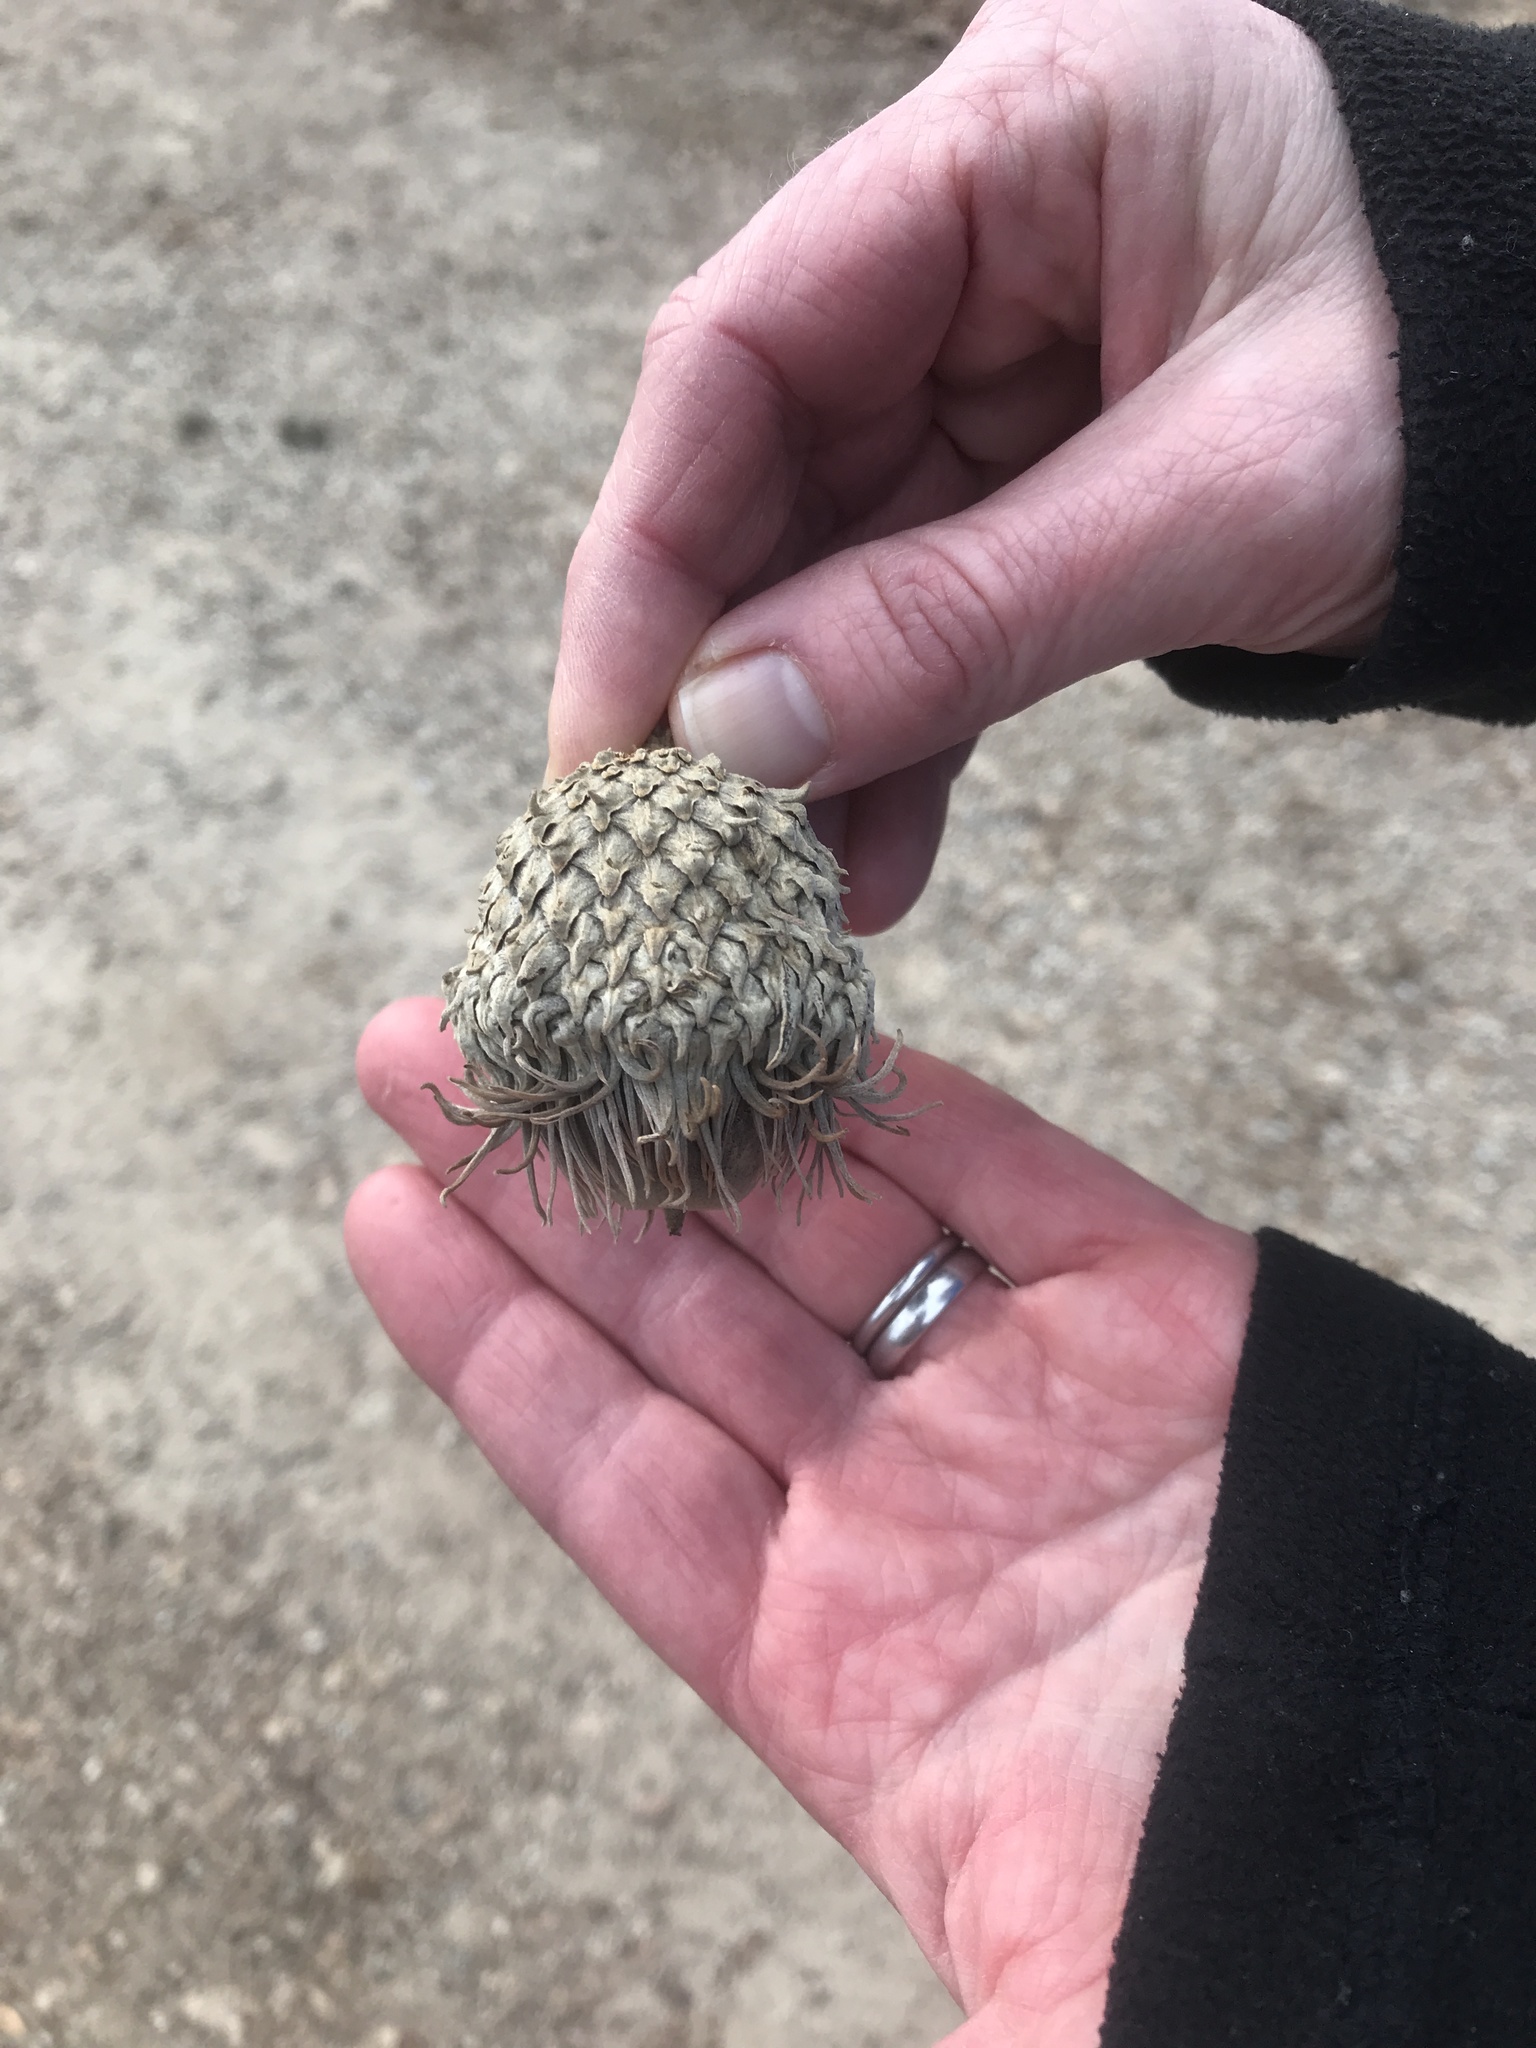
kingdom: Plantae
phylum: Tracheophyta
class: Magnoliopsida
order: Fagales
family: Fagaceae
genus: Quercus
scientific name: Quercus macrocarpa
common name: Bur oak
